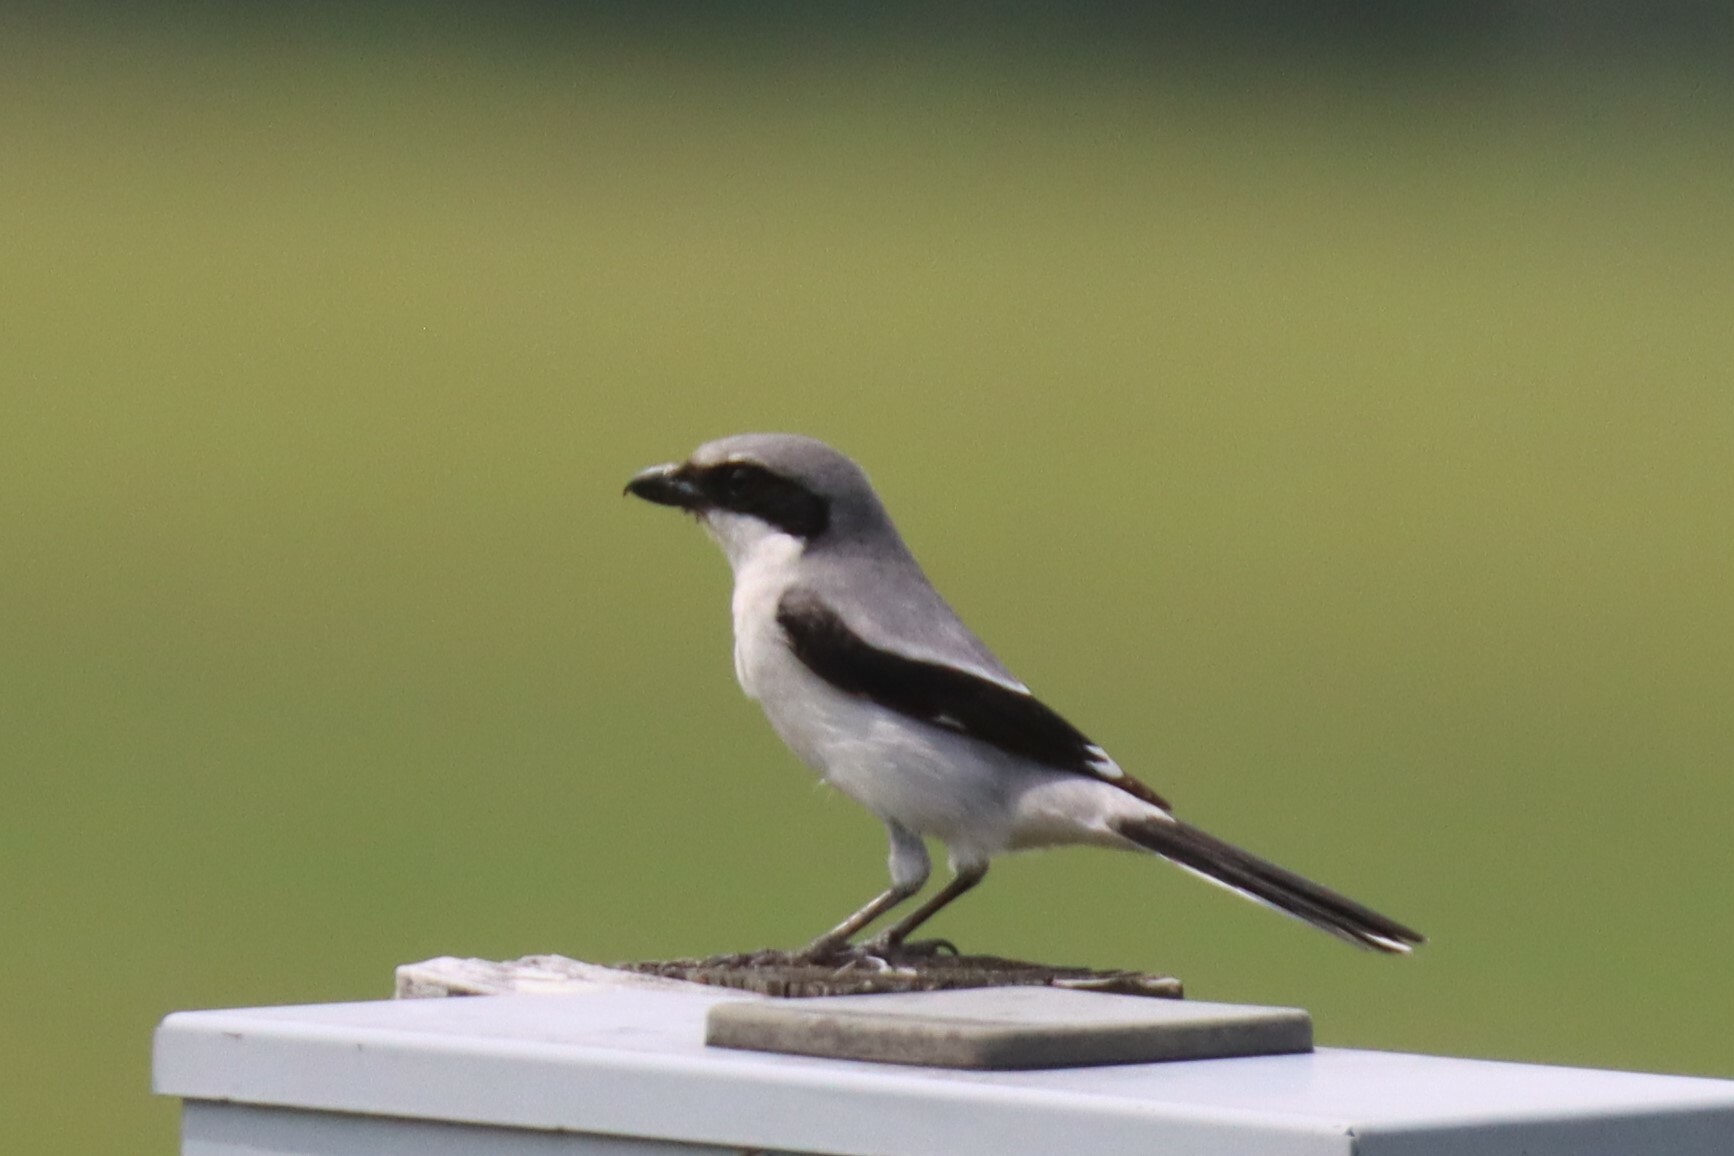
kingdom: Animalia
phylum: Chordata
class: Aves
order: Passeriformes
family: Laniidae
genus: Lanius
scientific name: Lanius ludovicianus
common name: Loggerhead shrike
